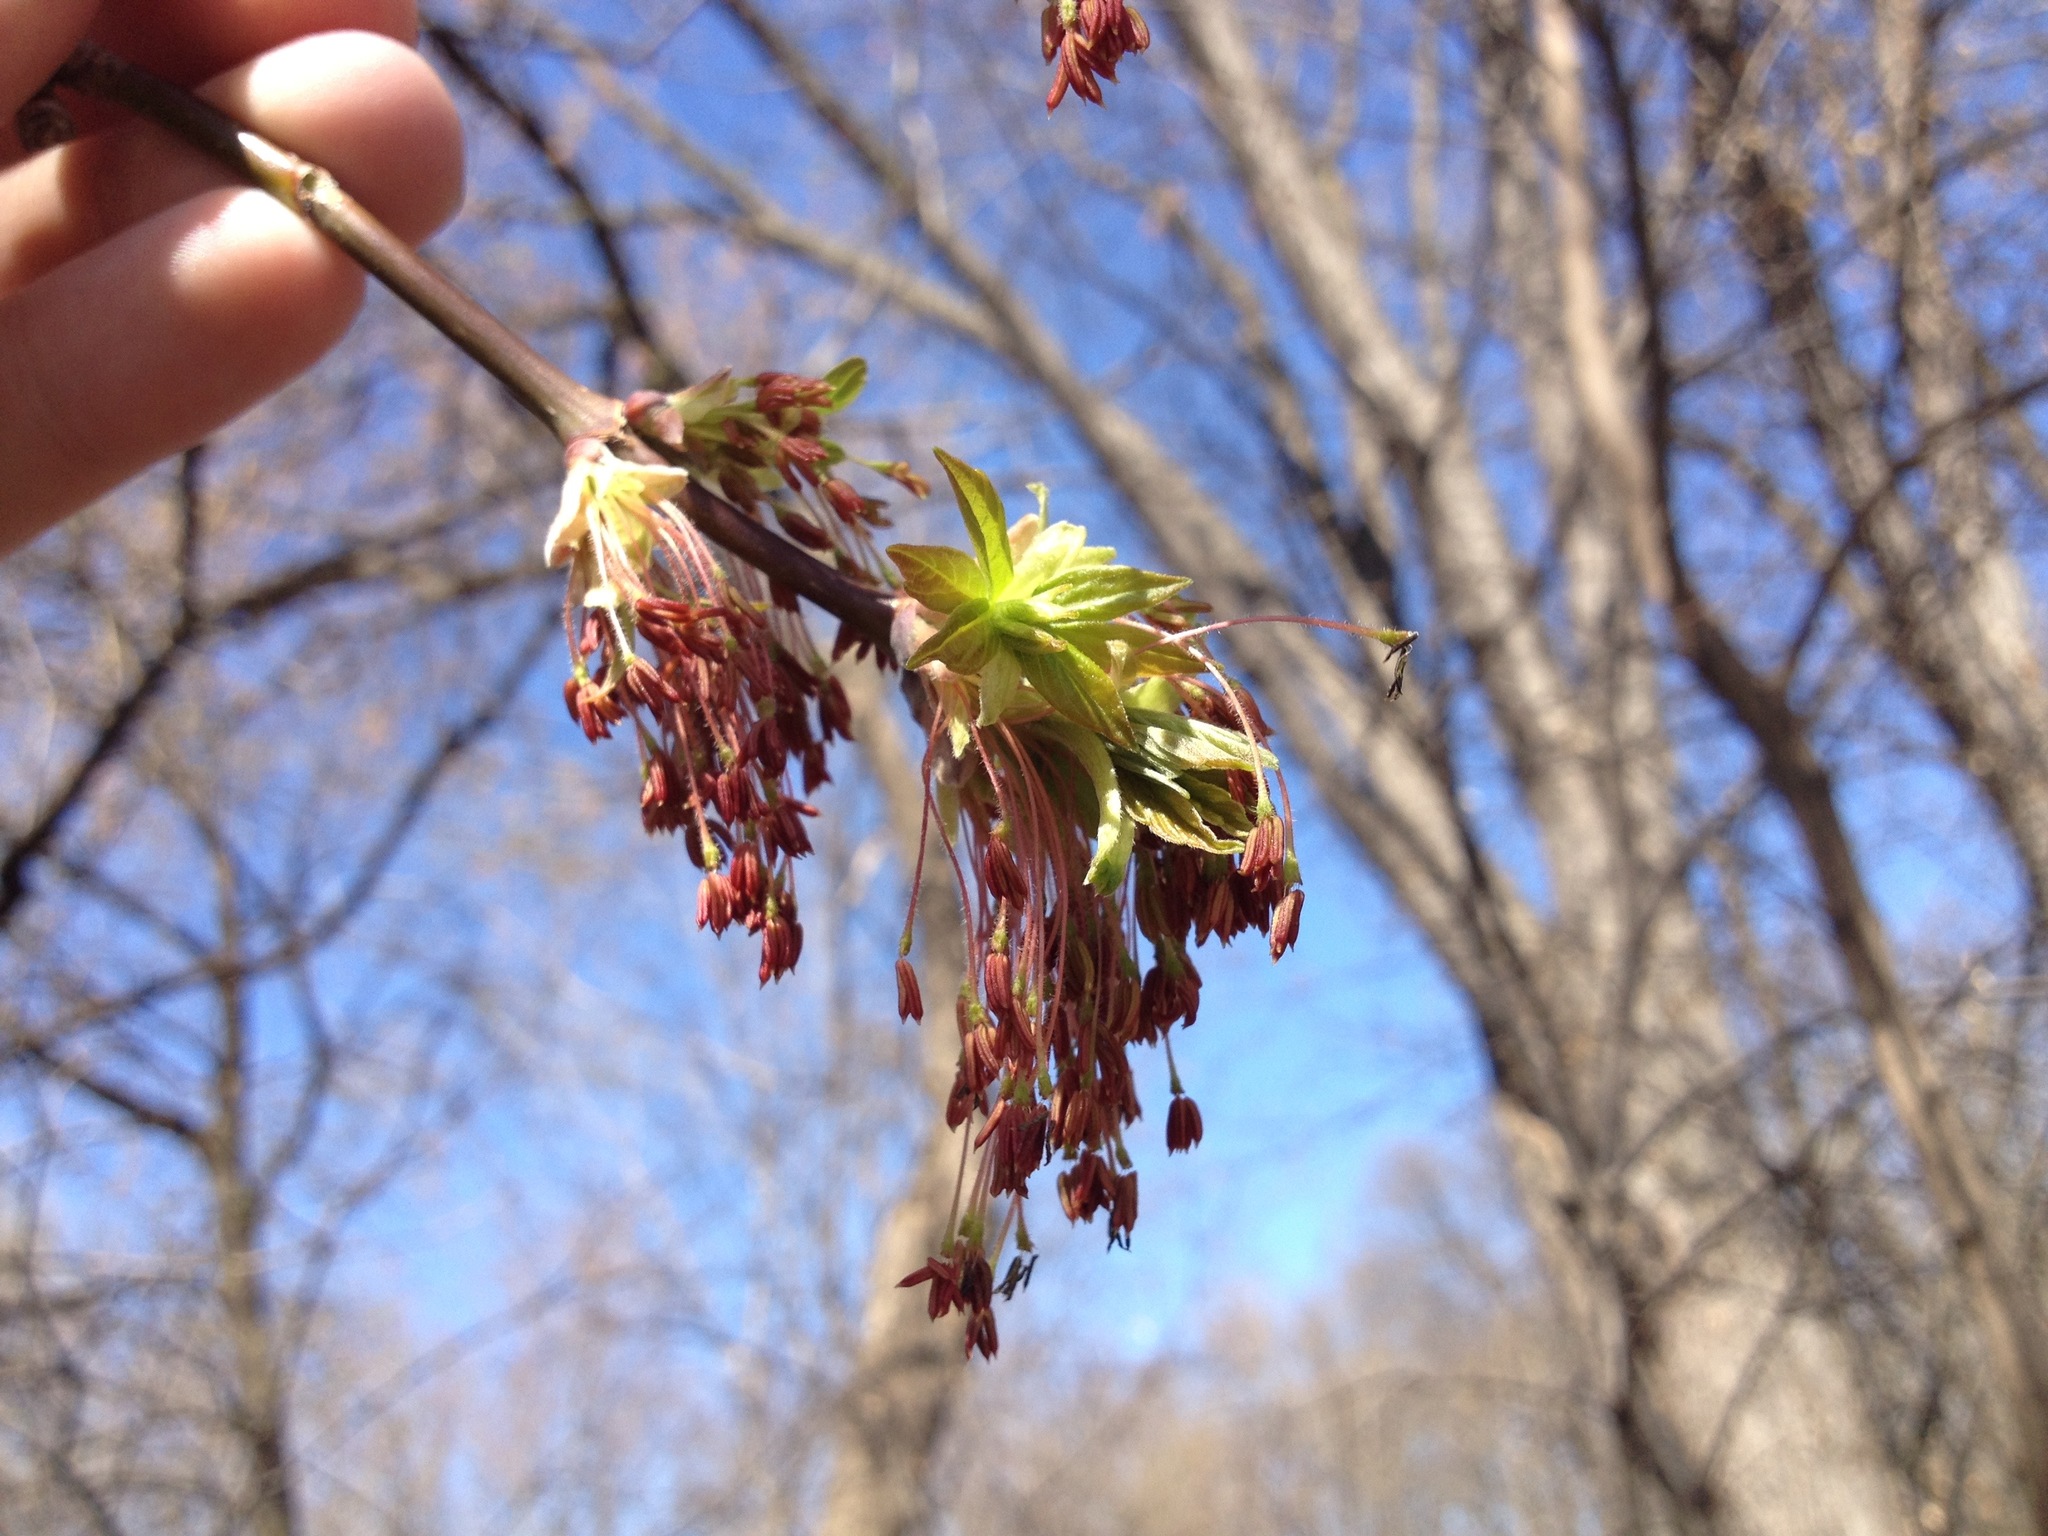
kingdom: Plantae
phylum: Tracheophyta
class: Magnoliopsida
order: Sapindales
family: Sapindaceae
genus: Acer
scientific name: Acer negundo
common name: Ashleaf maple
